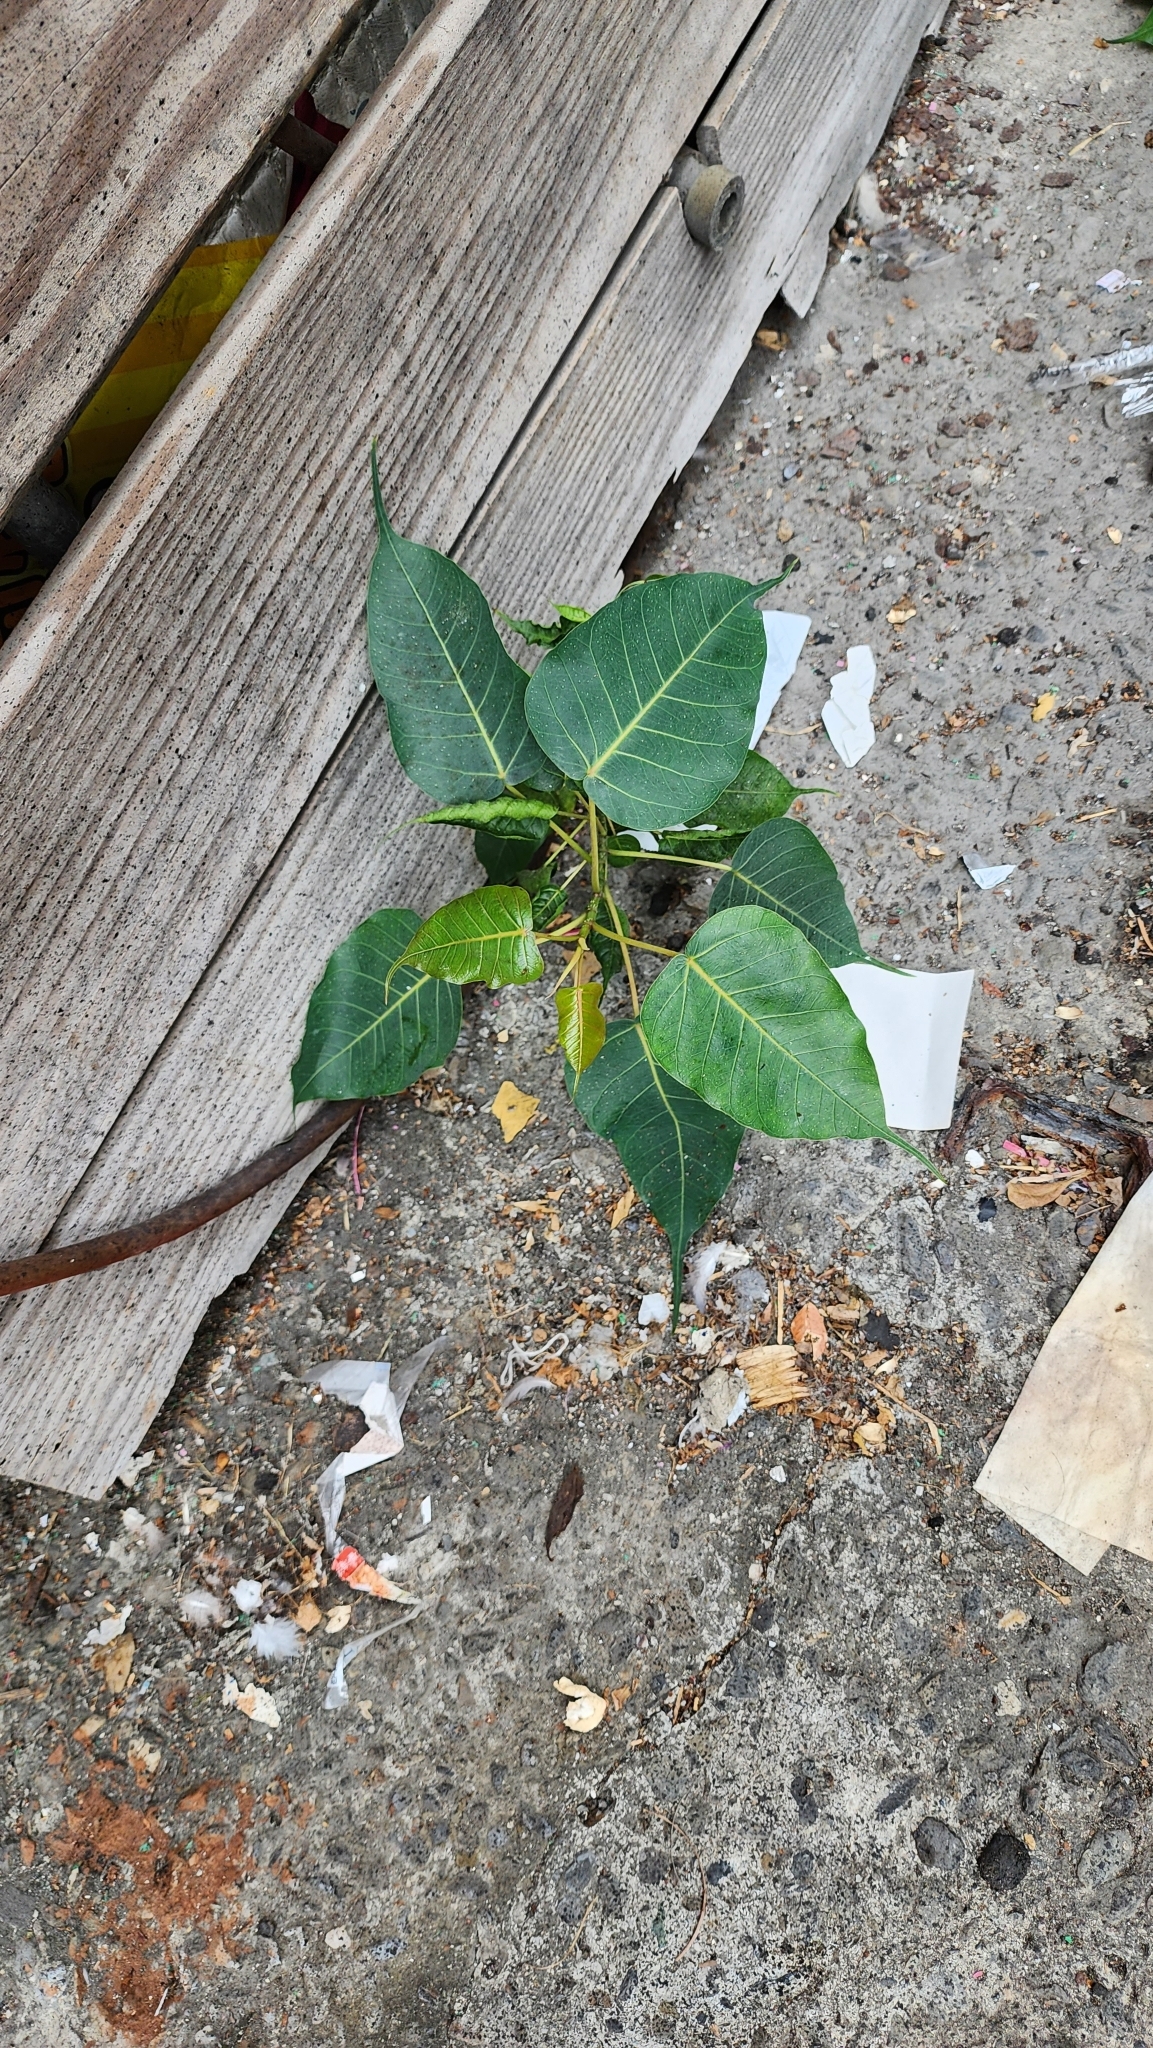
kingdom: Plantae
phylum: Tracheophyta
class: Magnoliopsida
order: Rosales
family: Moraceae
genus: Ficus
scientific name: Ficus religiosa
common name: Bodhi tree
